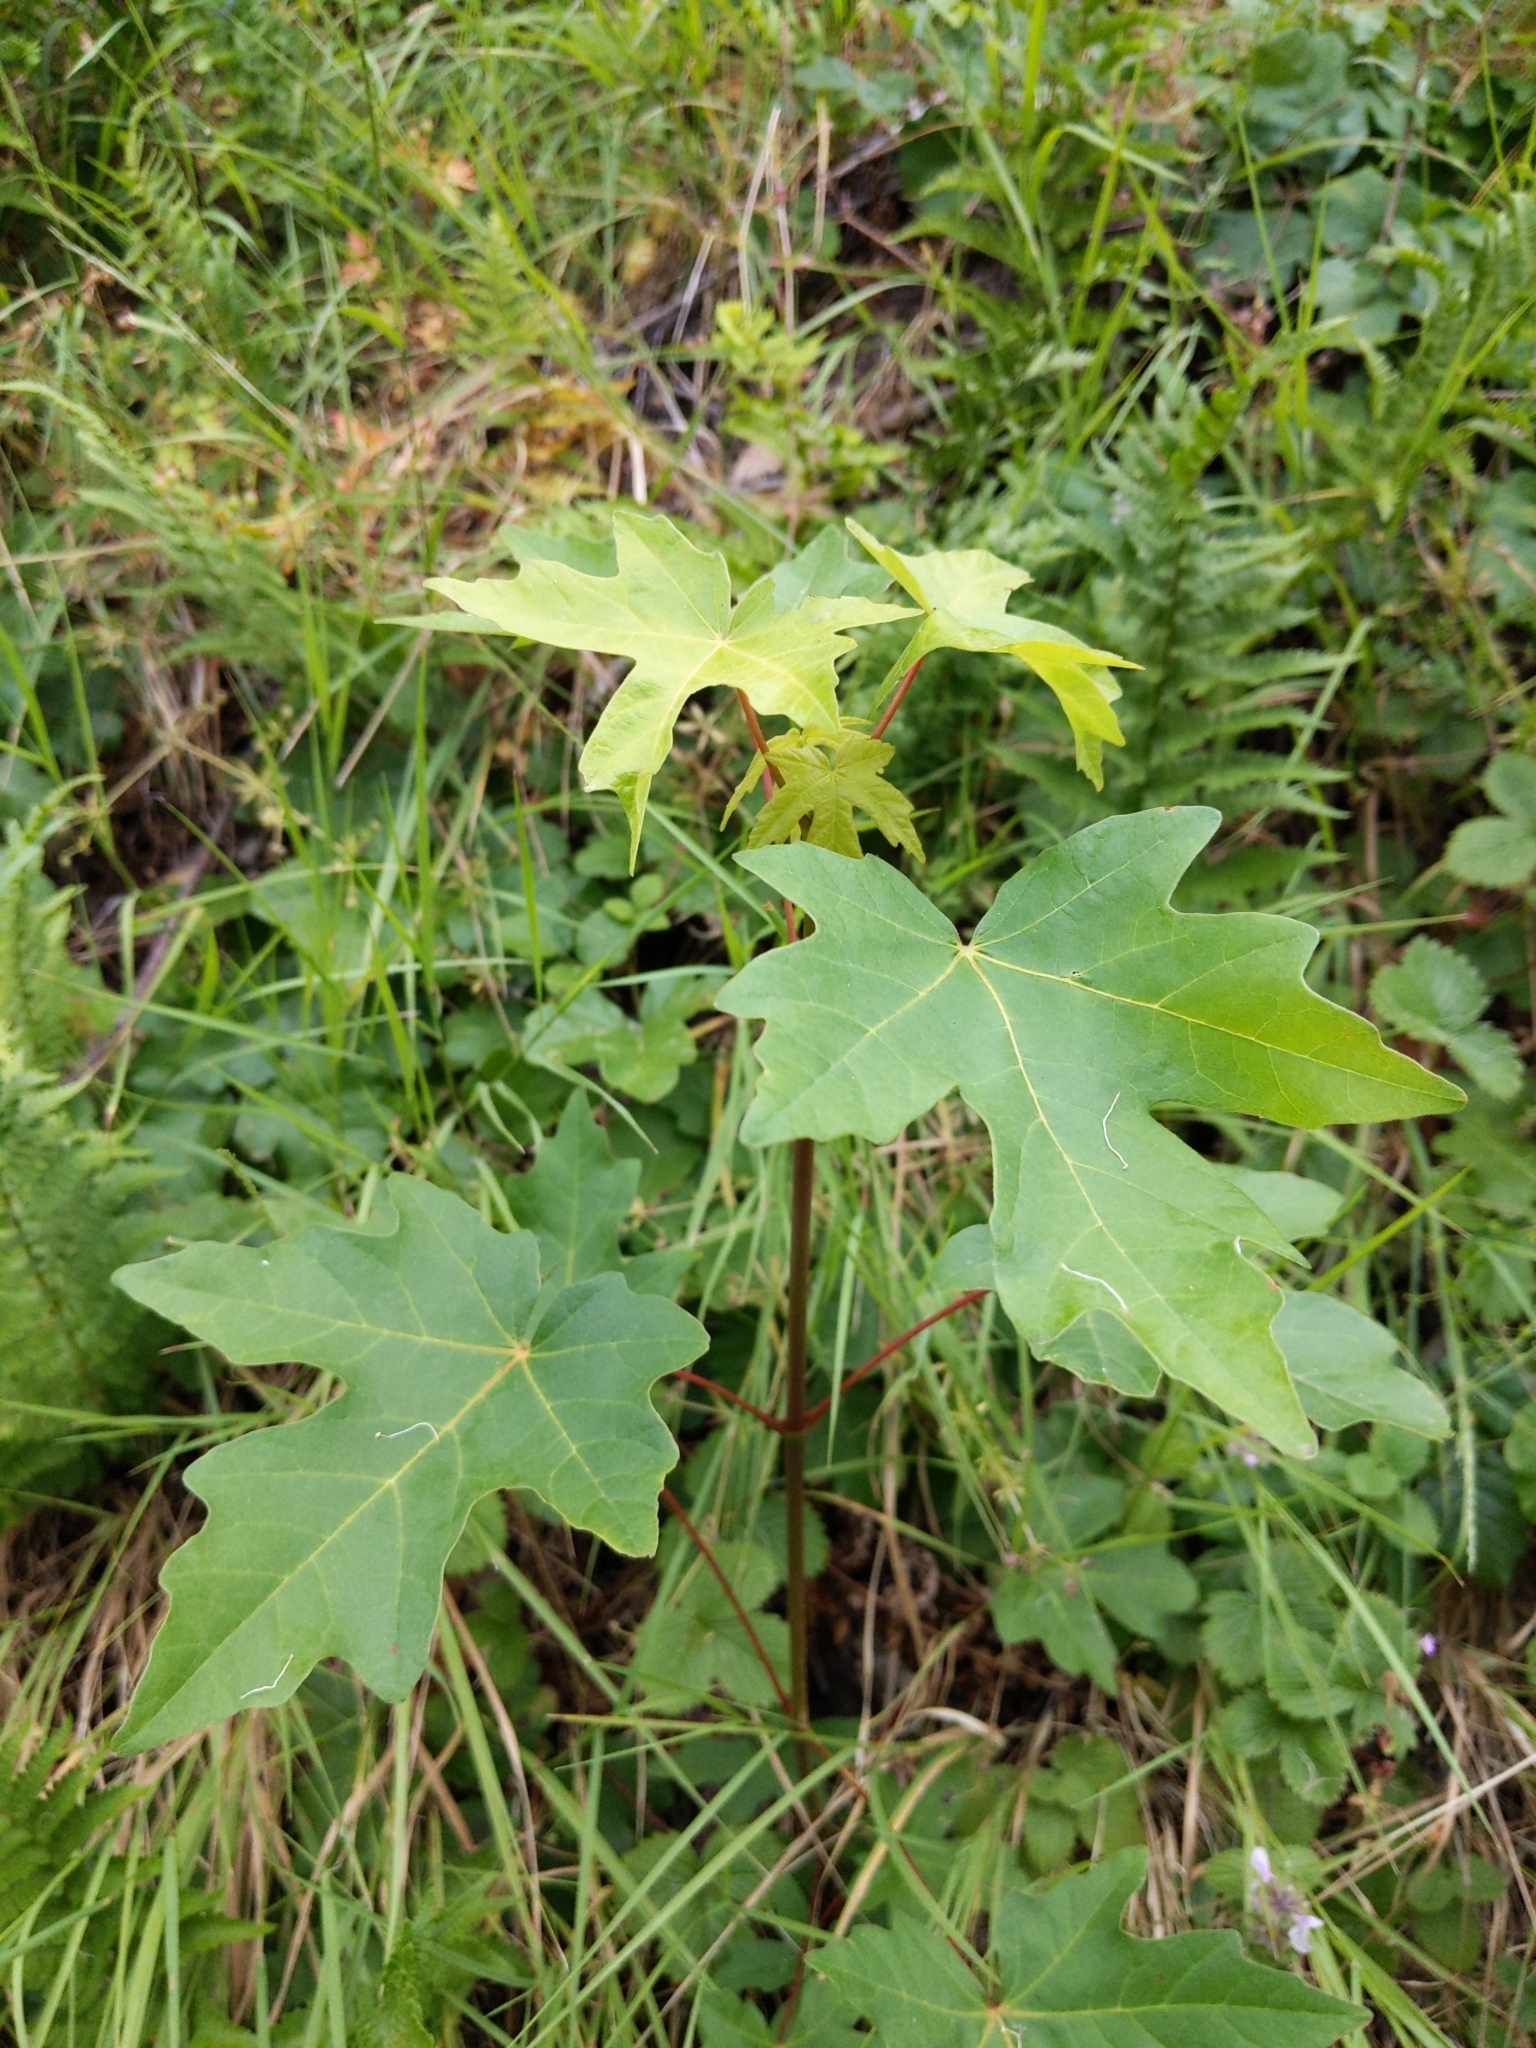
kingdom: Plantae
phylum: Tracheophyta
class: Magnoliopsida
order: Sapindales
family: Sapindaceae
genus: Acer
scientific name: Acer macrophyllum
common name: Oregon maple
